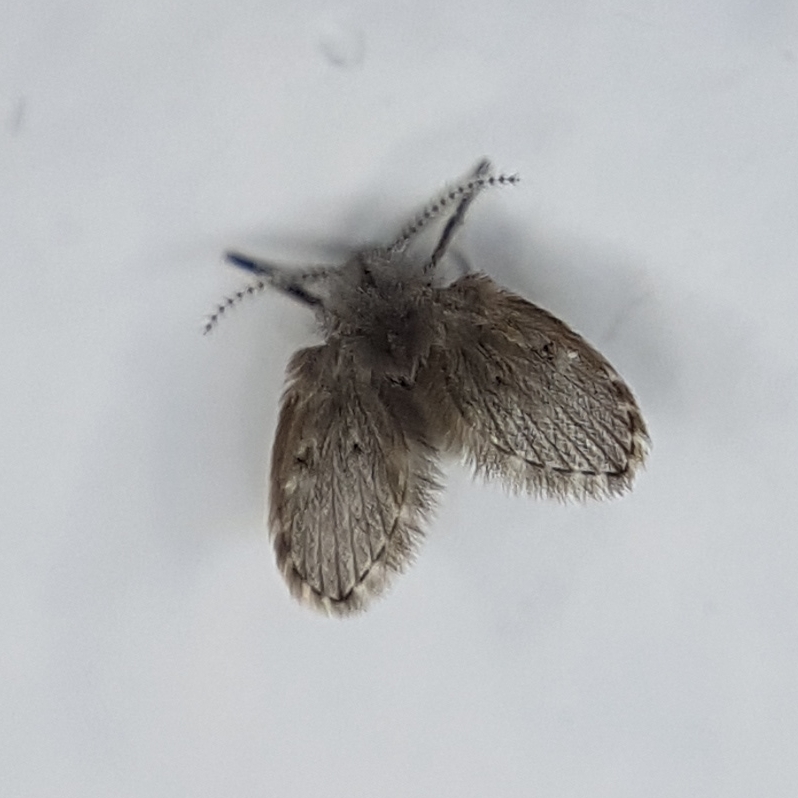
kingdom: Animalia
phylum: Arthropoda
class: Insecta
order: Diptera
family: Psychodidae
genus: Clogmia
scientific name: Clogmia albipunctatus
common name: White-spotted moth fly
